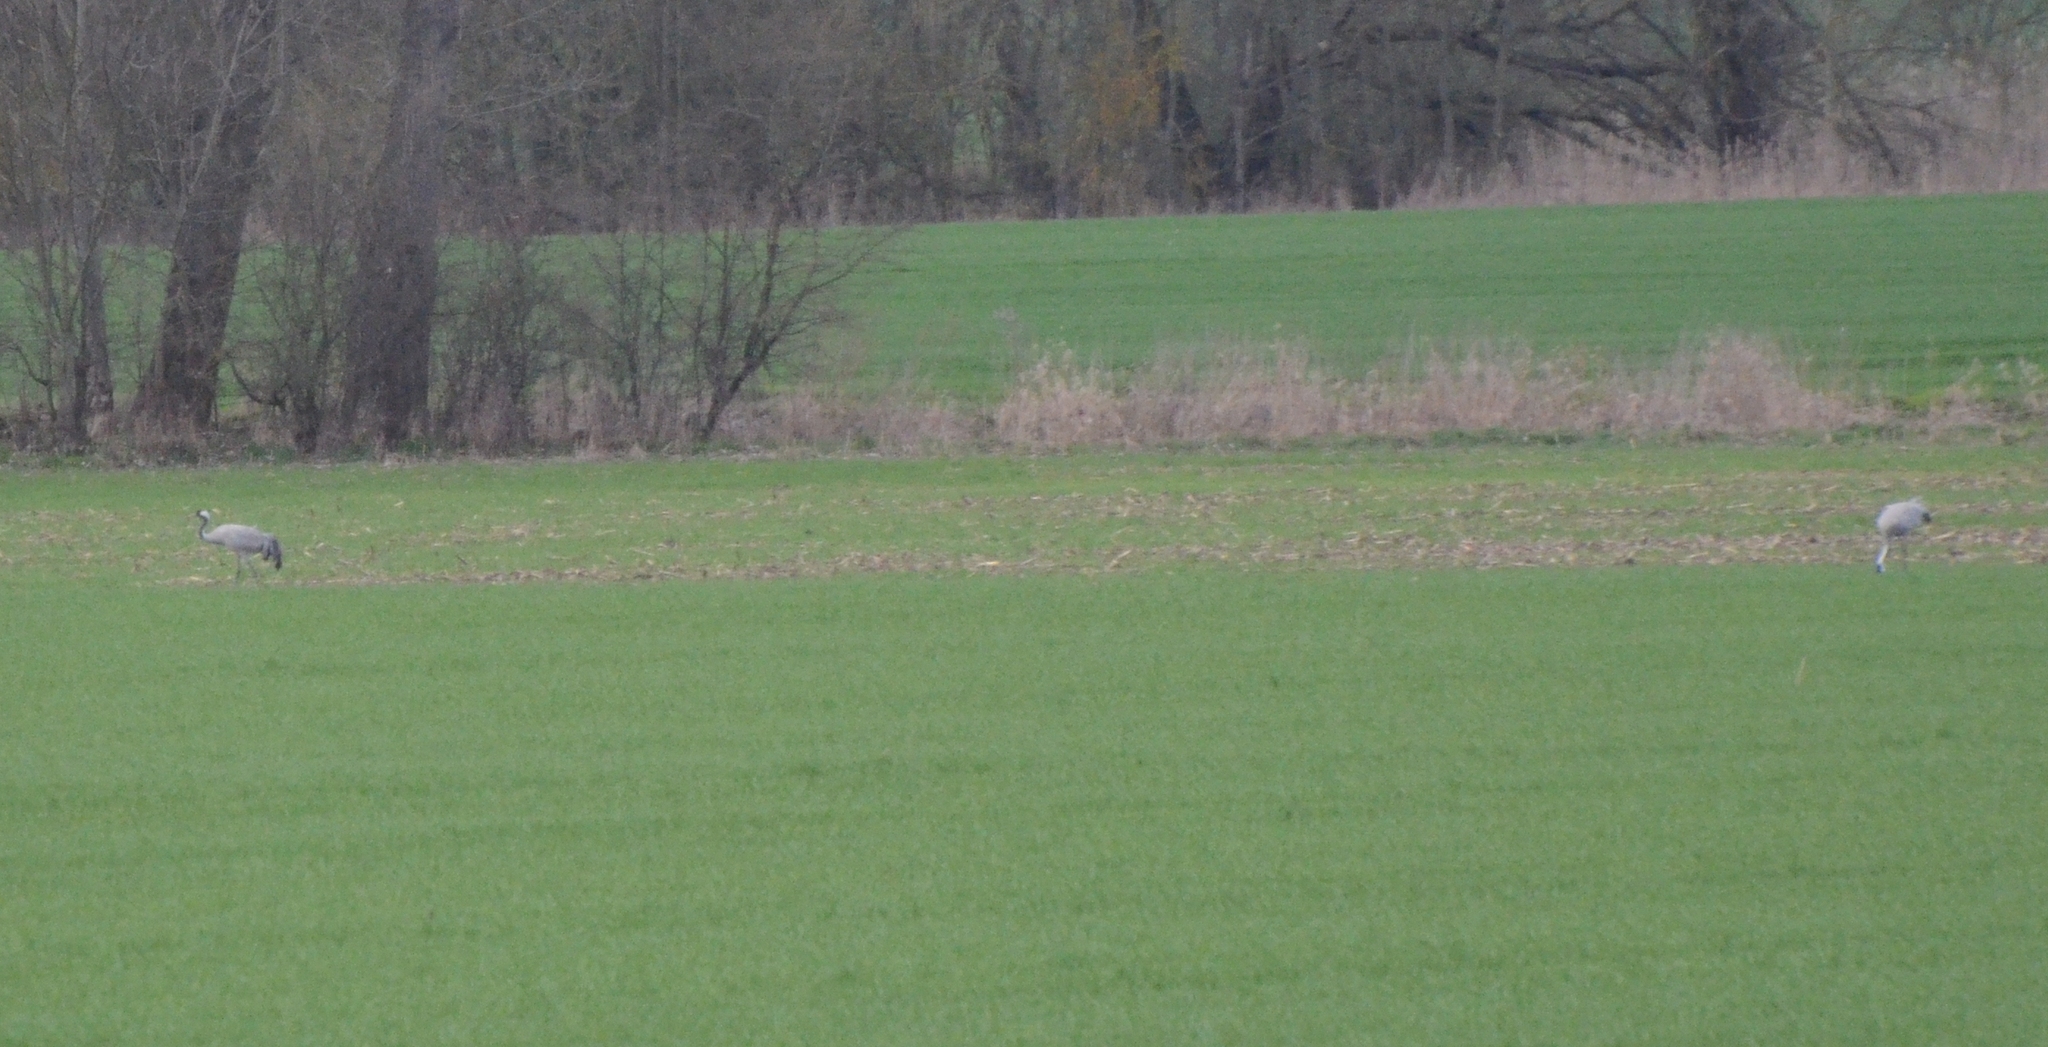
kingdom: Animalia
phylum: Chordata
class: Aves
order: Gruiformes
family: Gruidae
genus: Grus
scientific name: Grus grus
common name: Common crane
